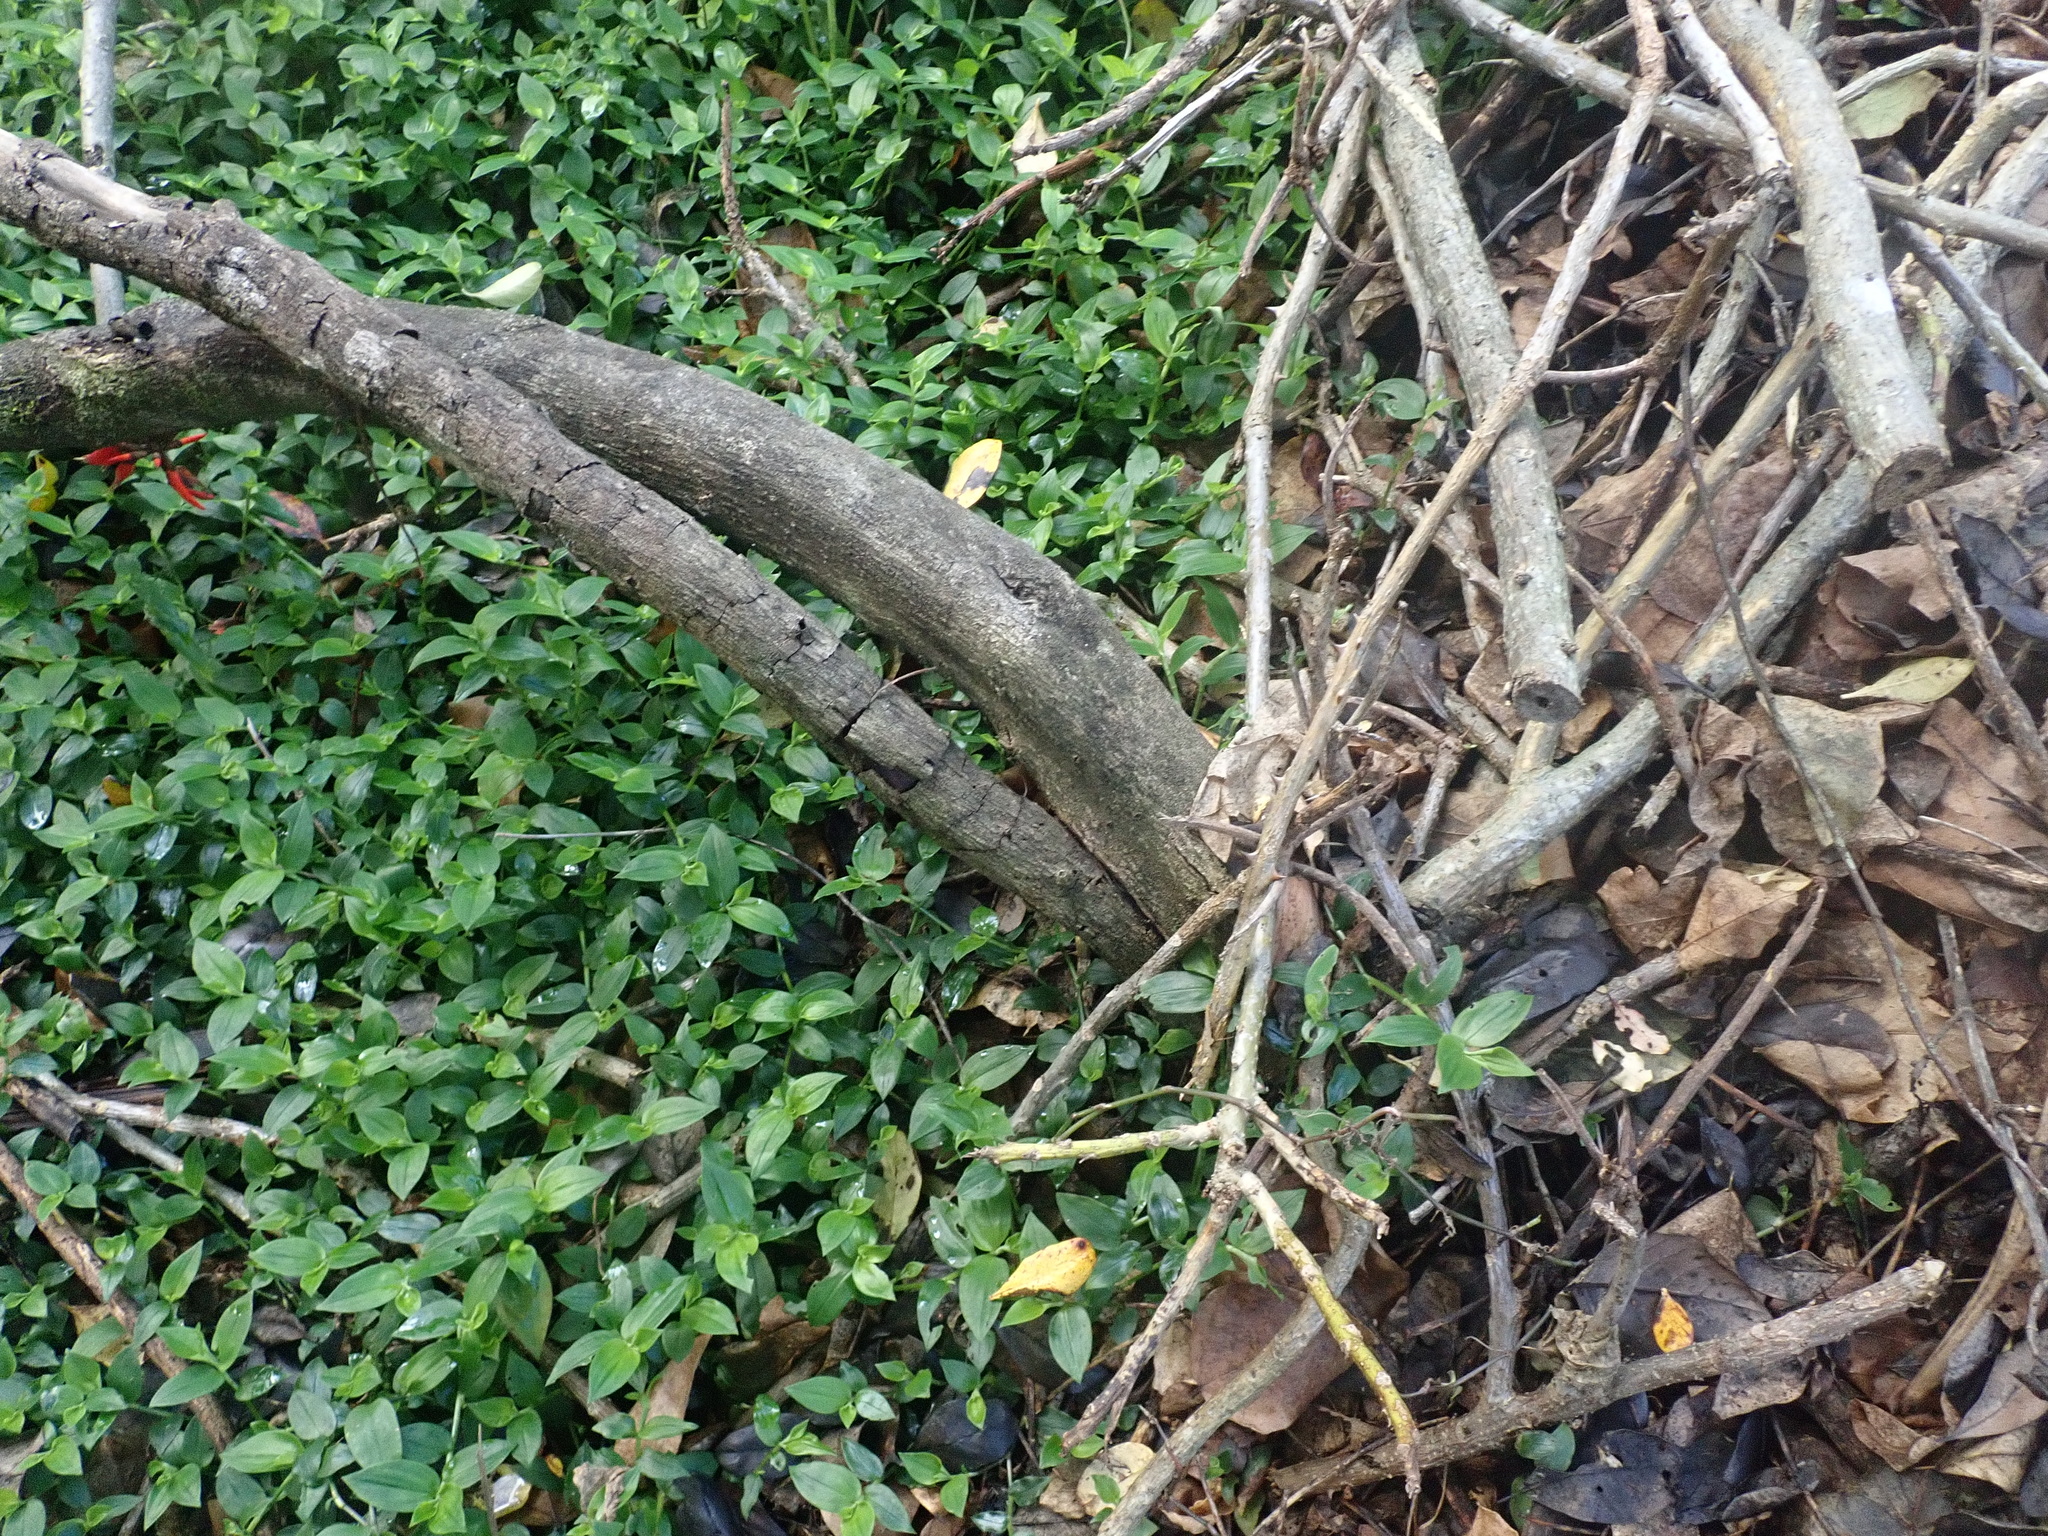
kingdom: Plantae
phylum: Tracheophyta
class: Magnoliopsida
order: Gentianales
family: Rubiaceae
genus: Coprosma
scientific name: Coprosma robusta
